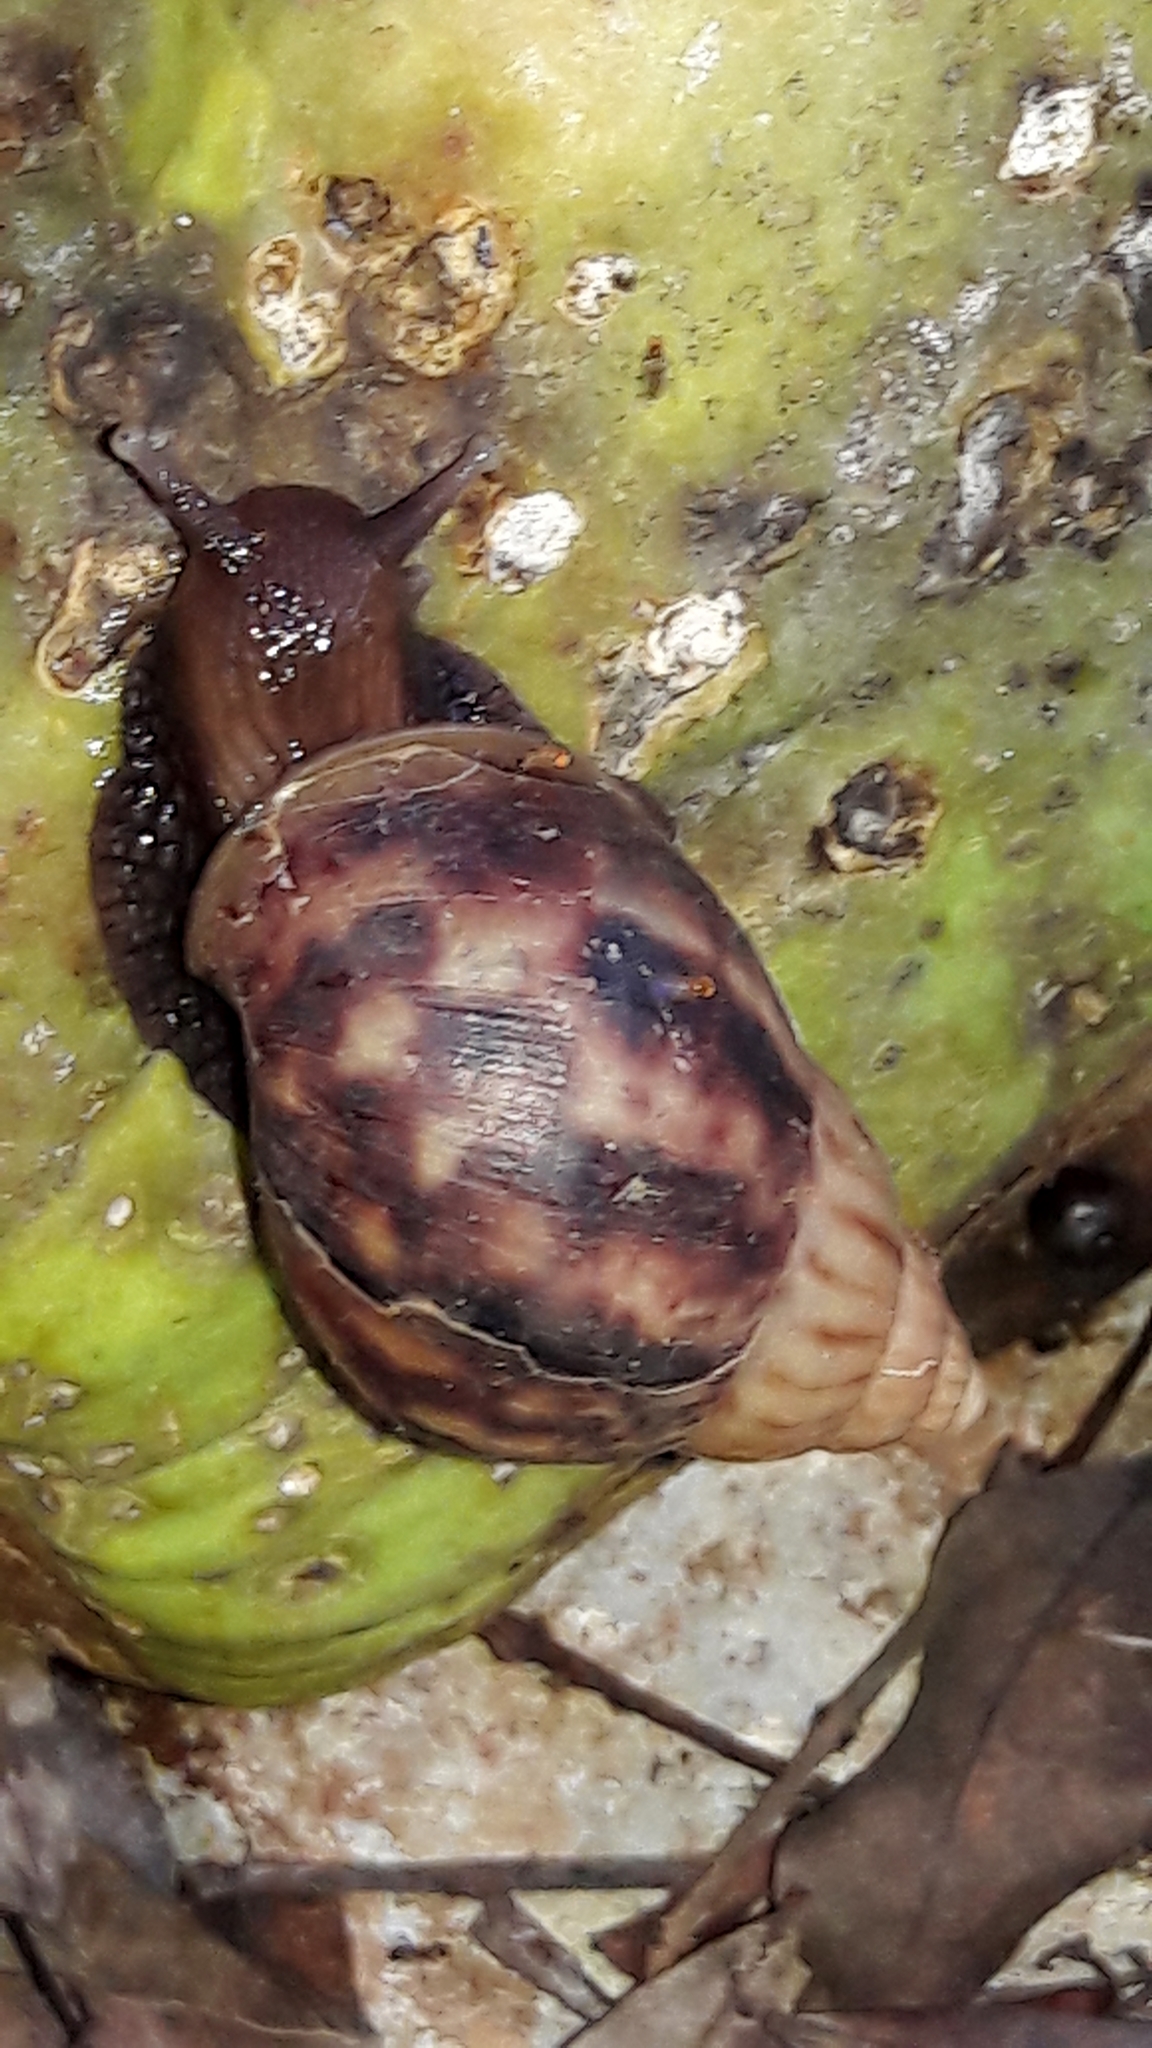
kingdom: Animalia
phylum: Mollusca
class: Gastropoda
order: Stylommatophora
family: Achatinidae
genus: Lissachatina
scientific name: Lissachatina fulica
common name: Giant african snail
